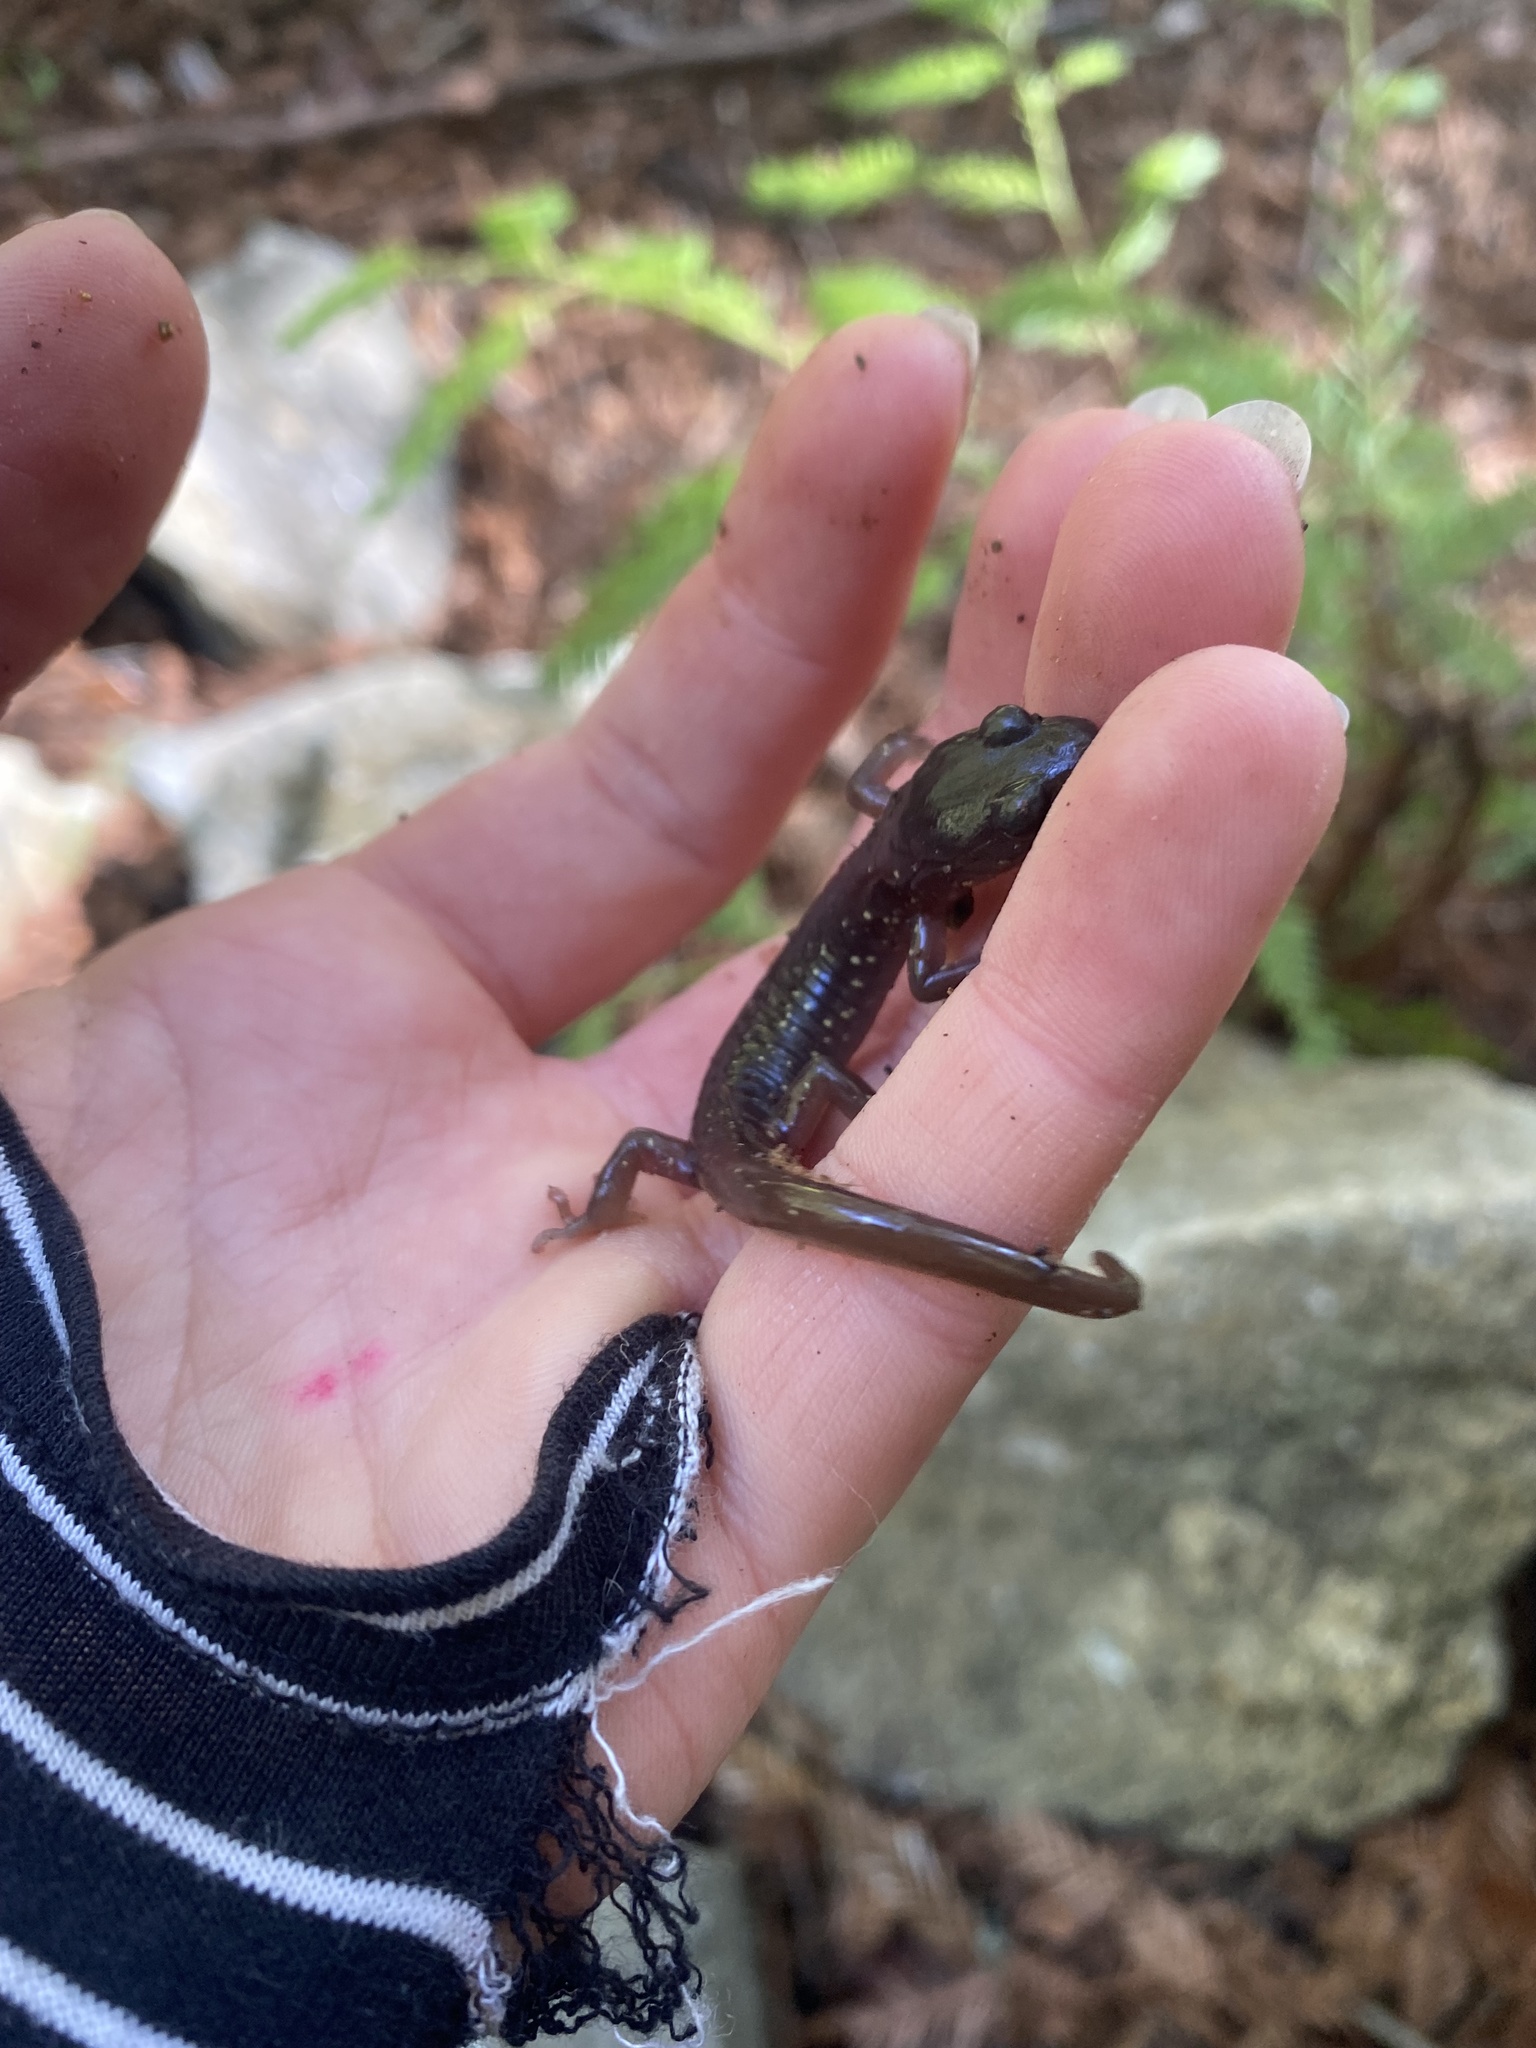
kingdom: Animalia
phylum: Chordata
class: Amphibia
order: Caudata
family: Plethodontidae
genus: Aneides
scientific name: Aneides lugubris
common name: Arboreal salamander
